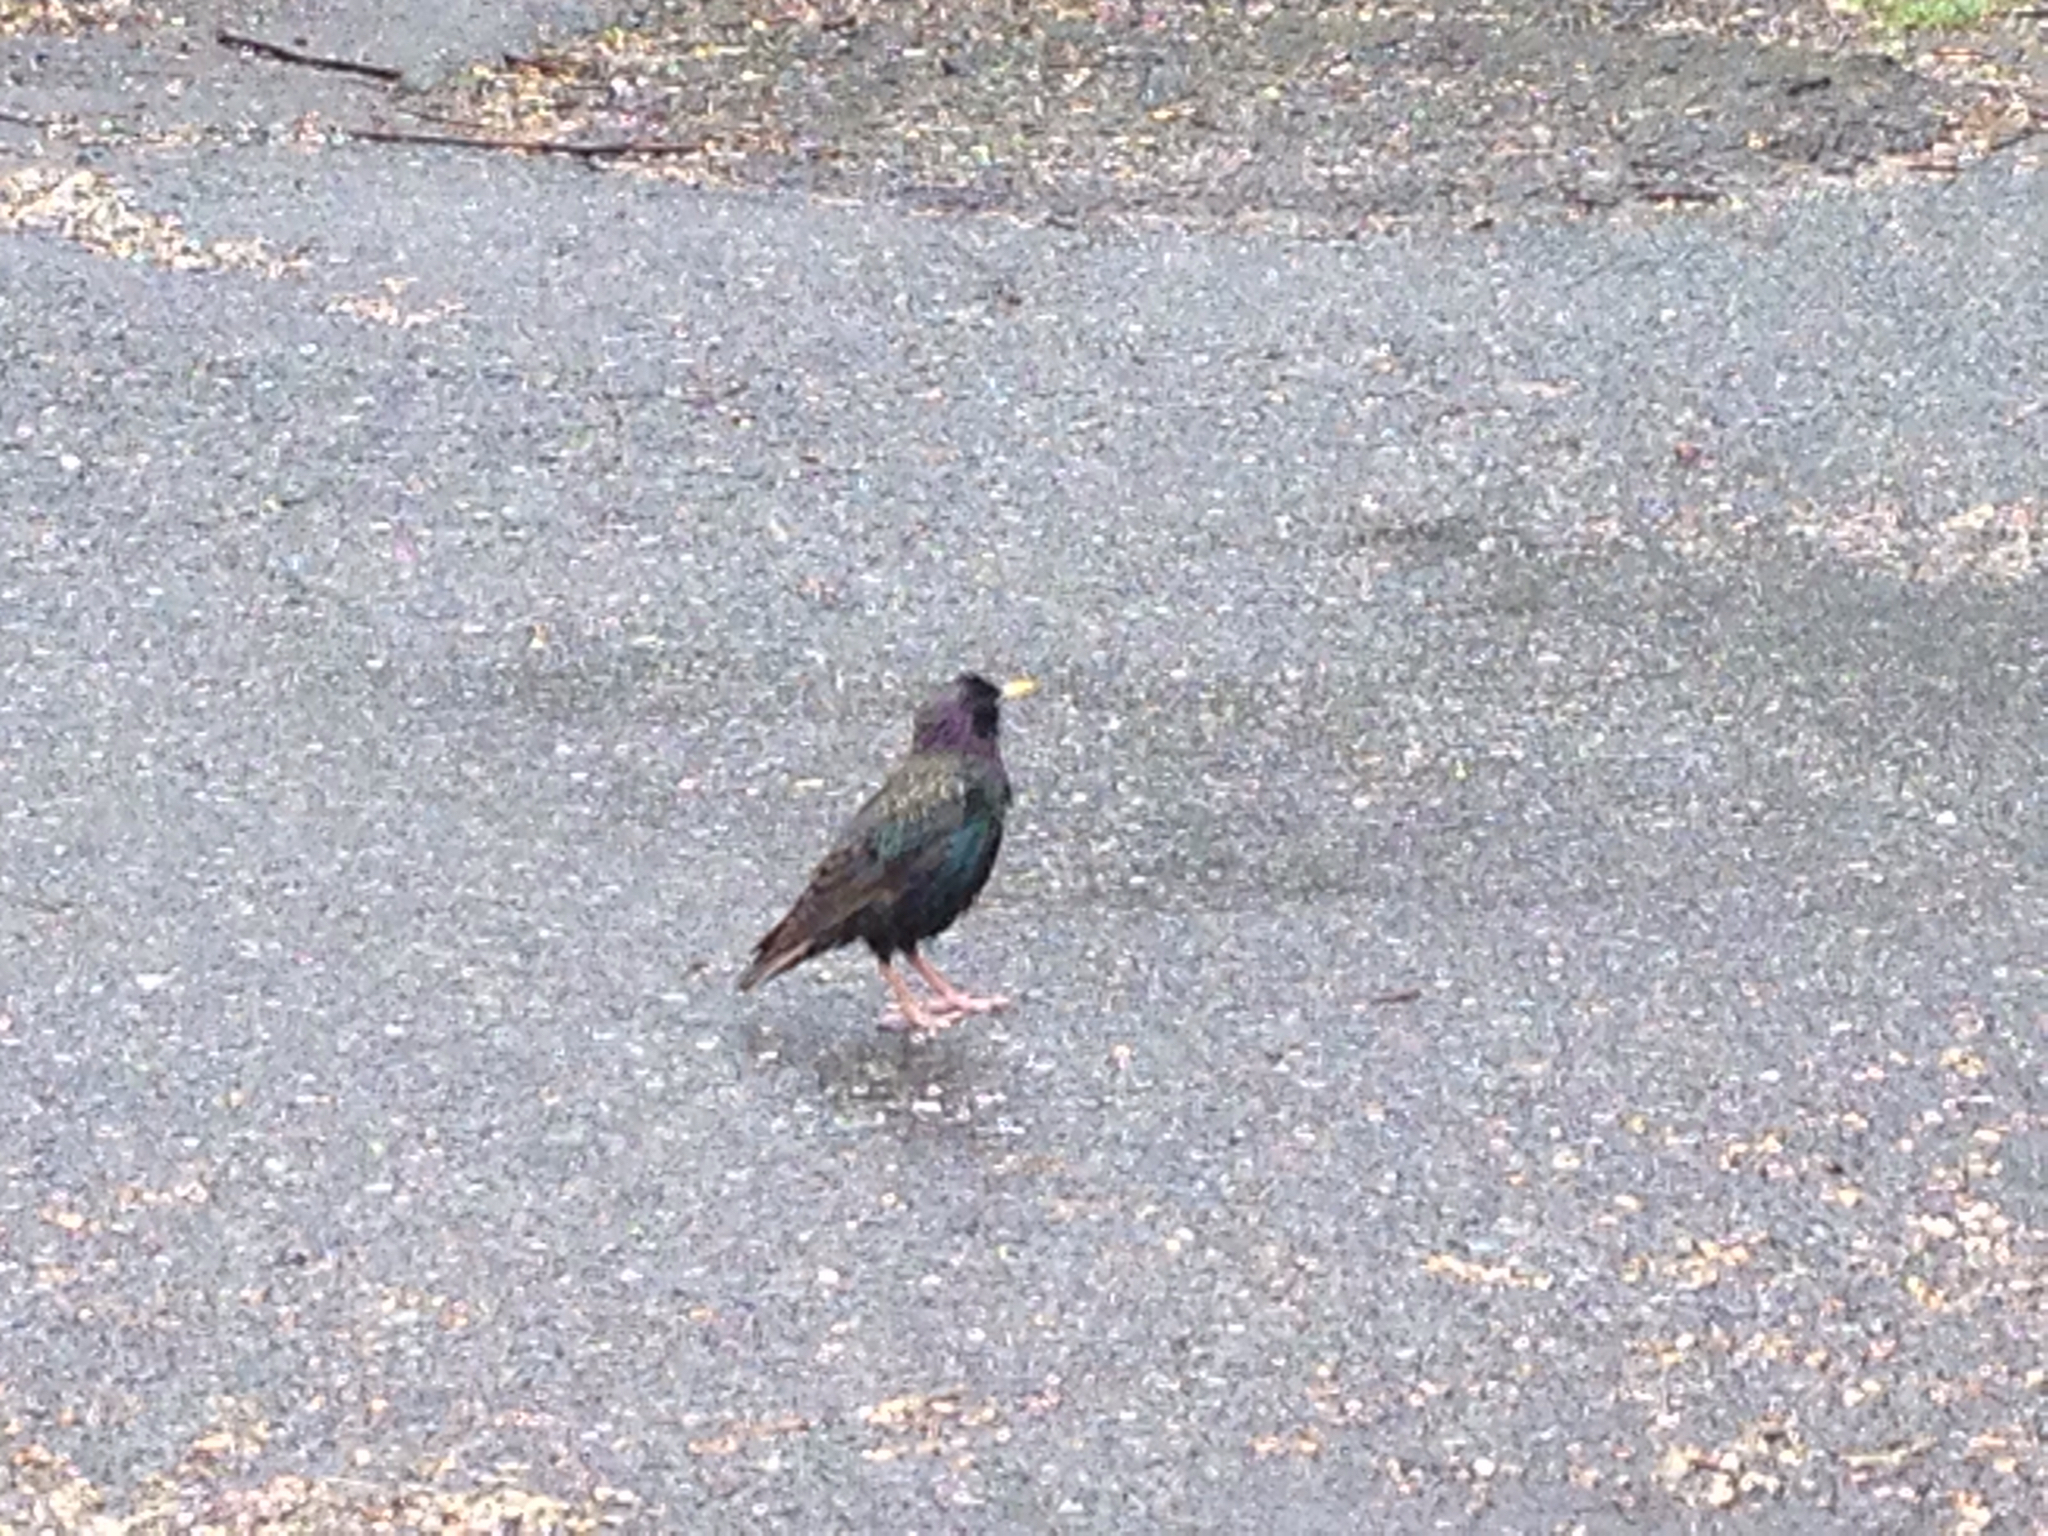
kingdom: Animalia
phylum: Chordata
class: Aves
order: Passeriformes
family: Sturnidae
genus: Sturnus
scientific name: Sturnus vulgaris
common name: Common starling
